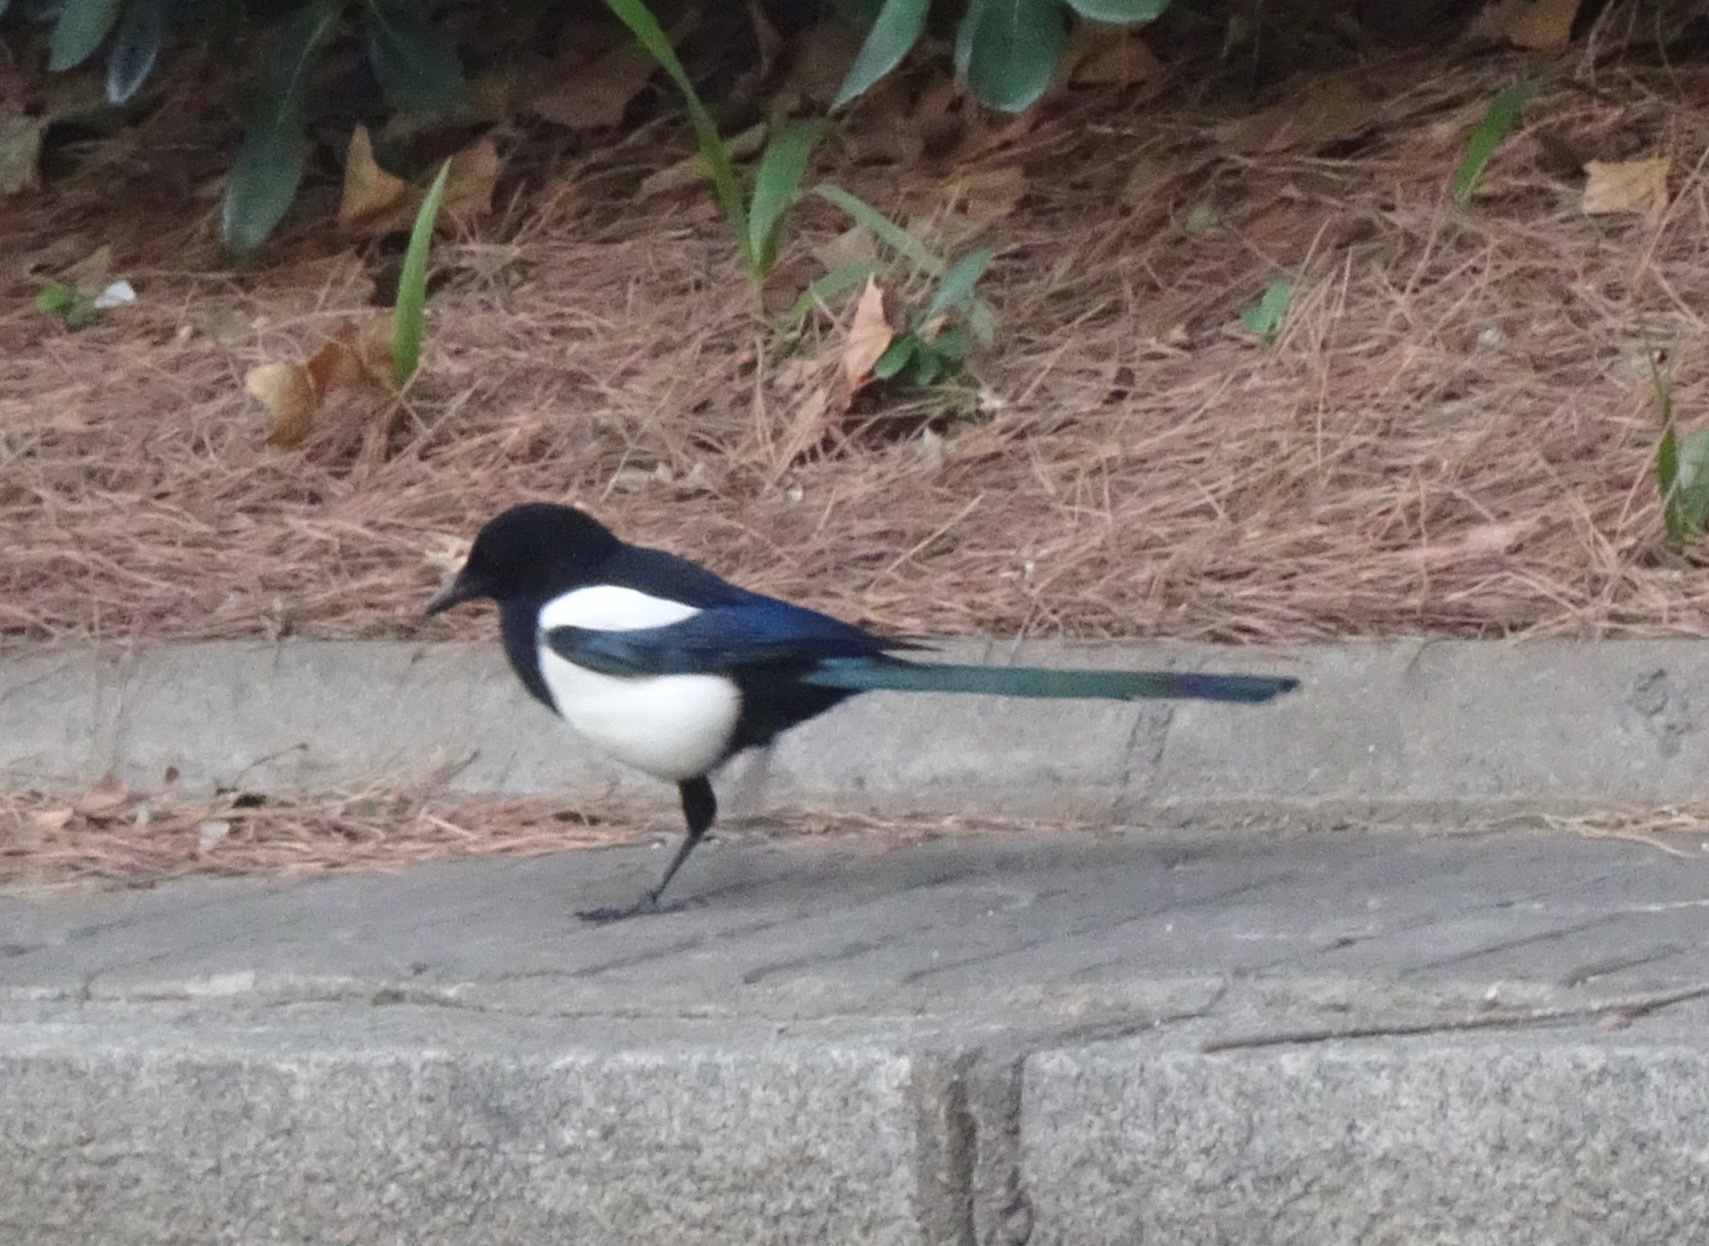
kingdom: Animalia
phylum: Chordata
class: Aves
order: Passeriformes
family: Corvidae
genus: Pica
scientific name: Pica pica
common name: Eurasian magpie
